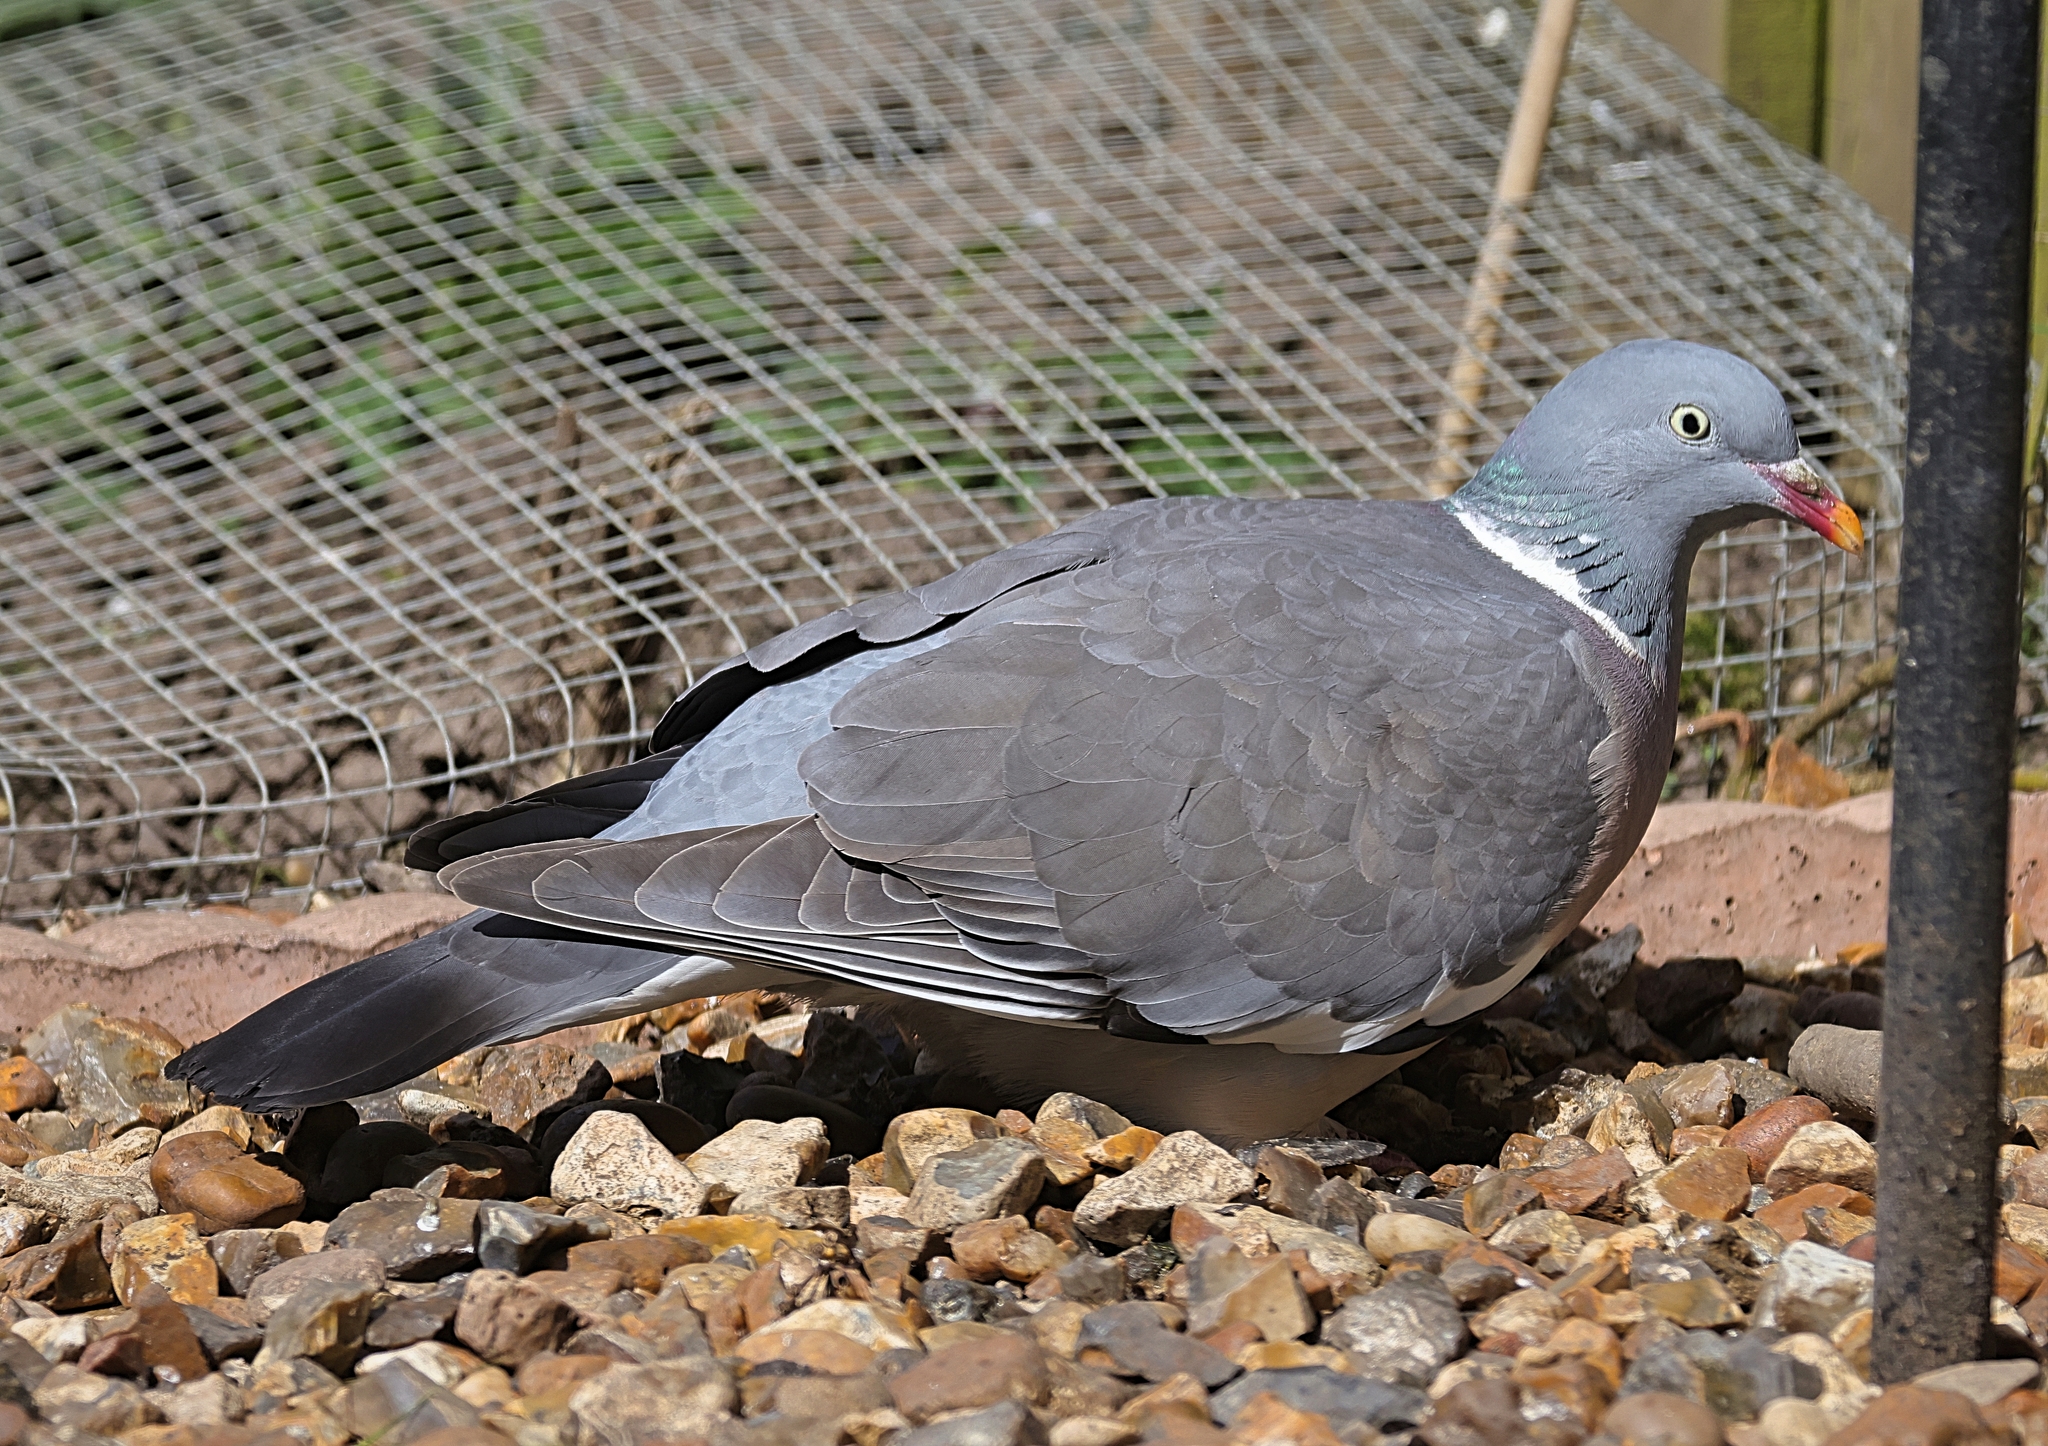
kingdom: Animalia
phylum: Chordata
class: Aves
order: Columbiformes
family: Columbidae
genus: Columba
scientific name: Columba palumbus
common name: Common wood pigeon
